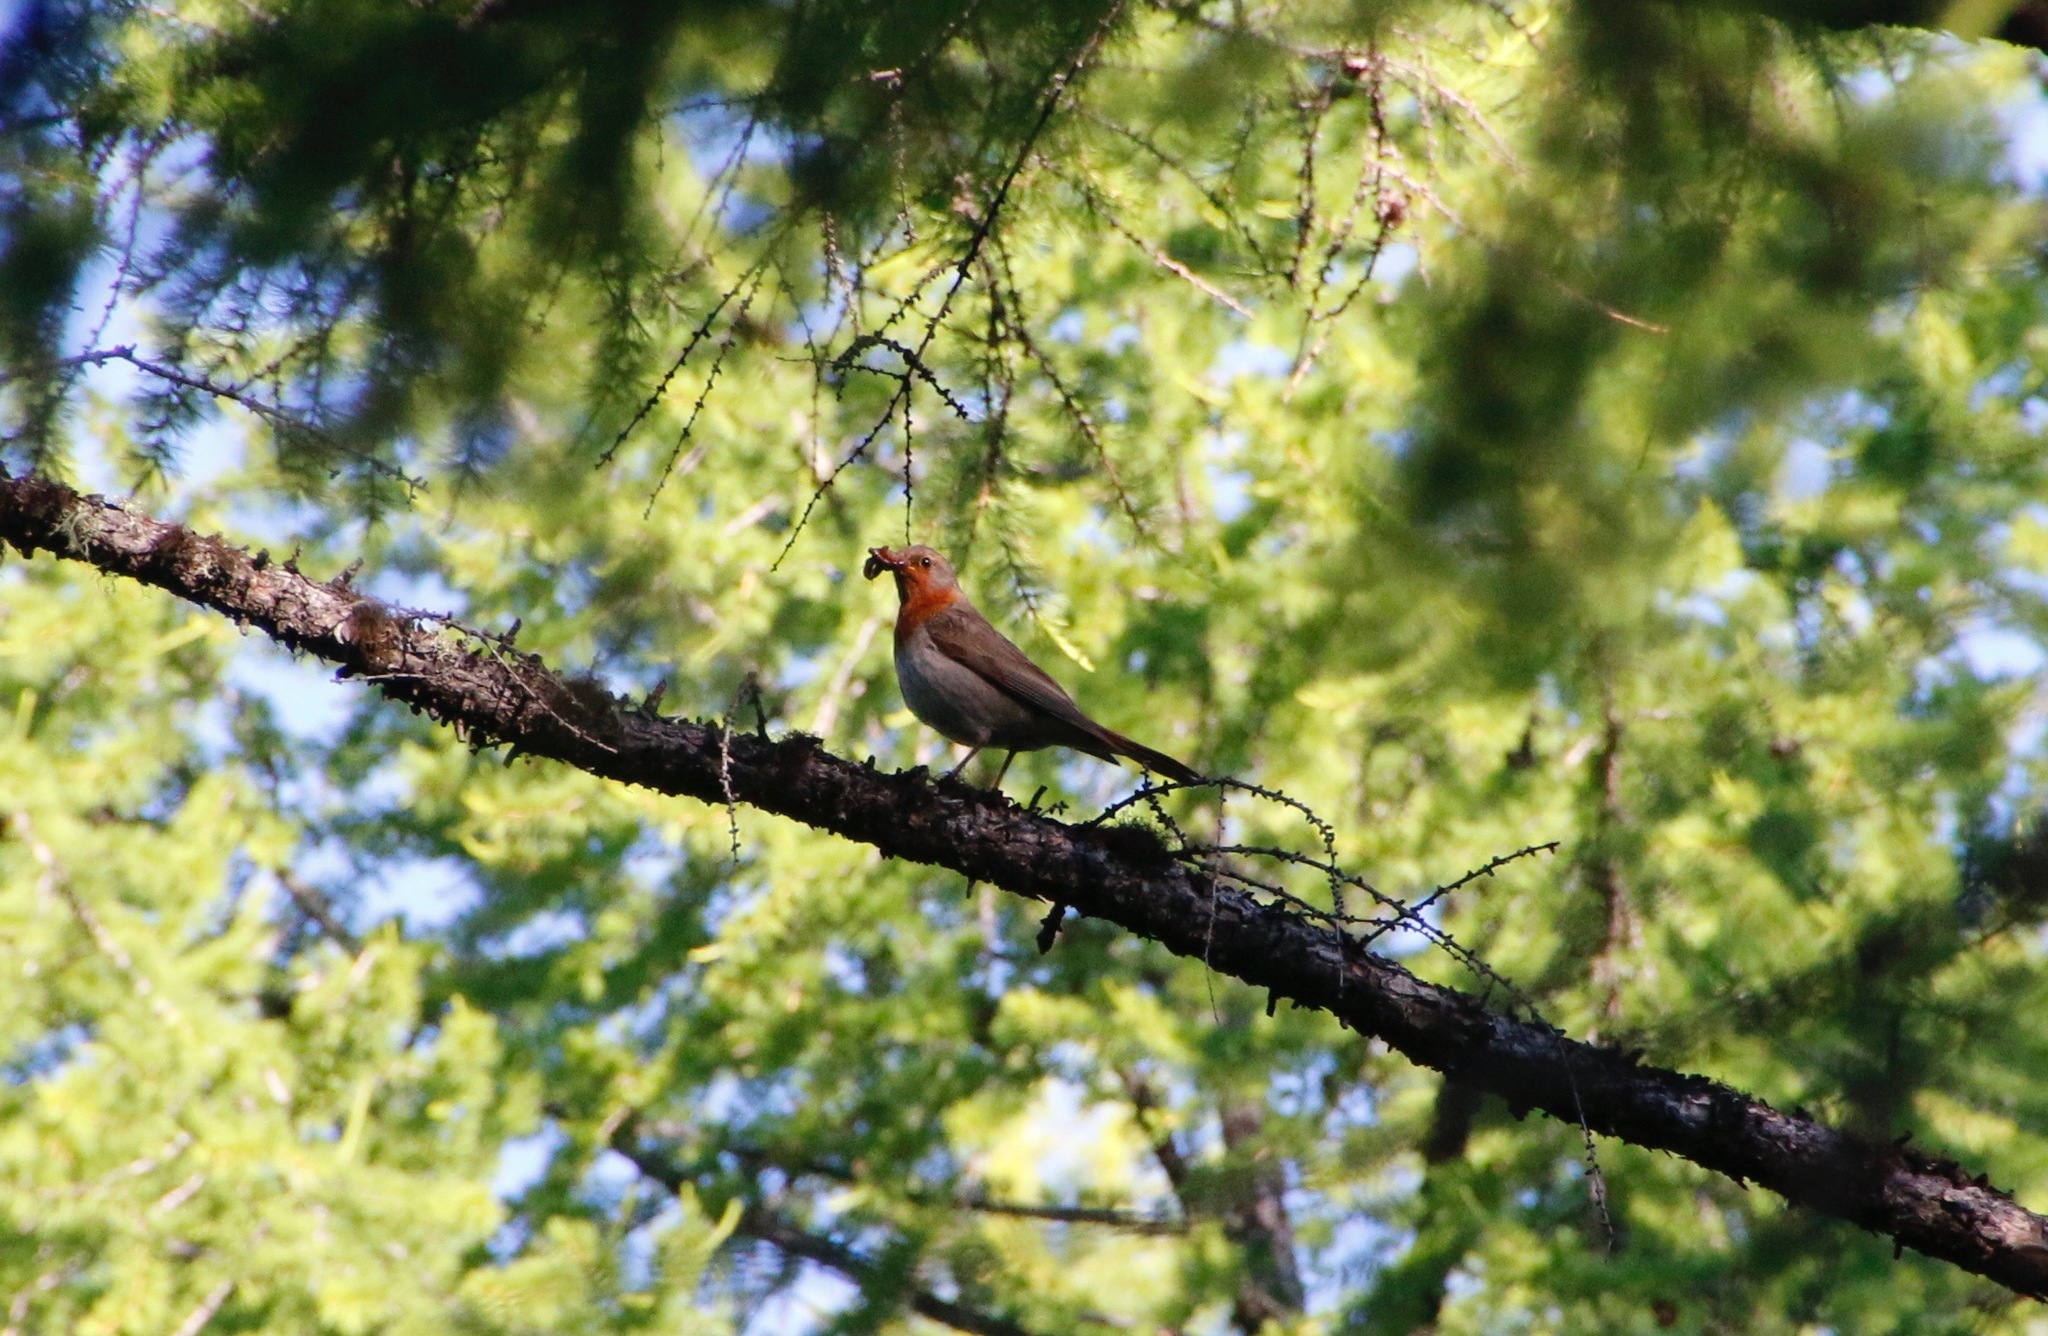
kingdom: Animalia
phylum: Chordata
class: Aves
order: Passeriformes
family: Turdidae
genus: Turdus
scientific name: Turdus ruficollis
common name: Red-throated thrush
